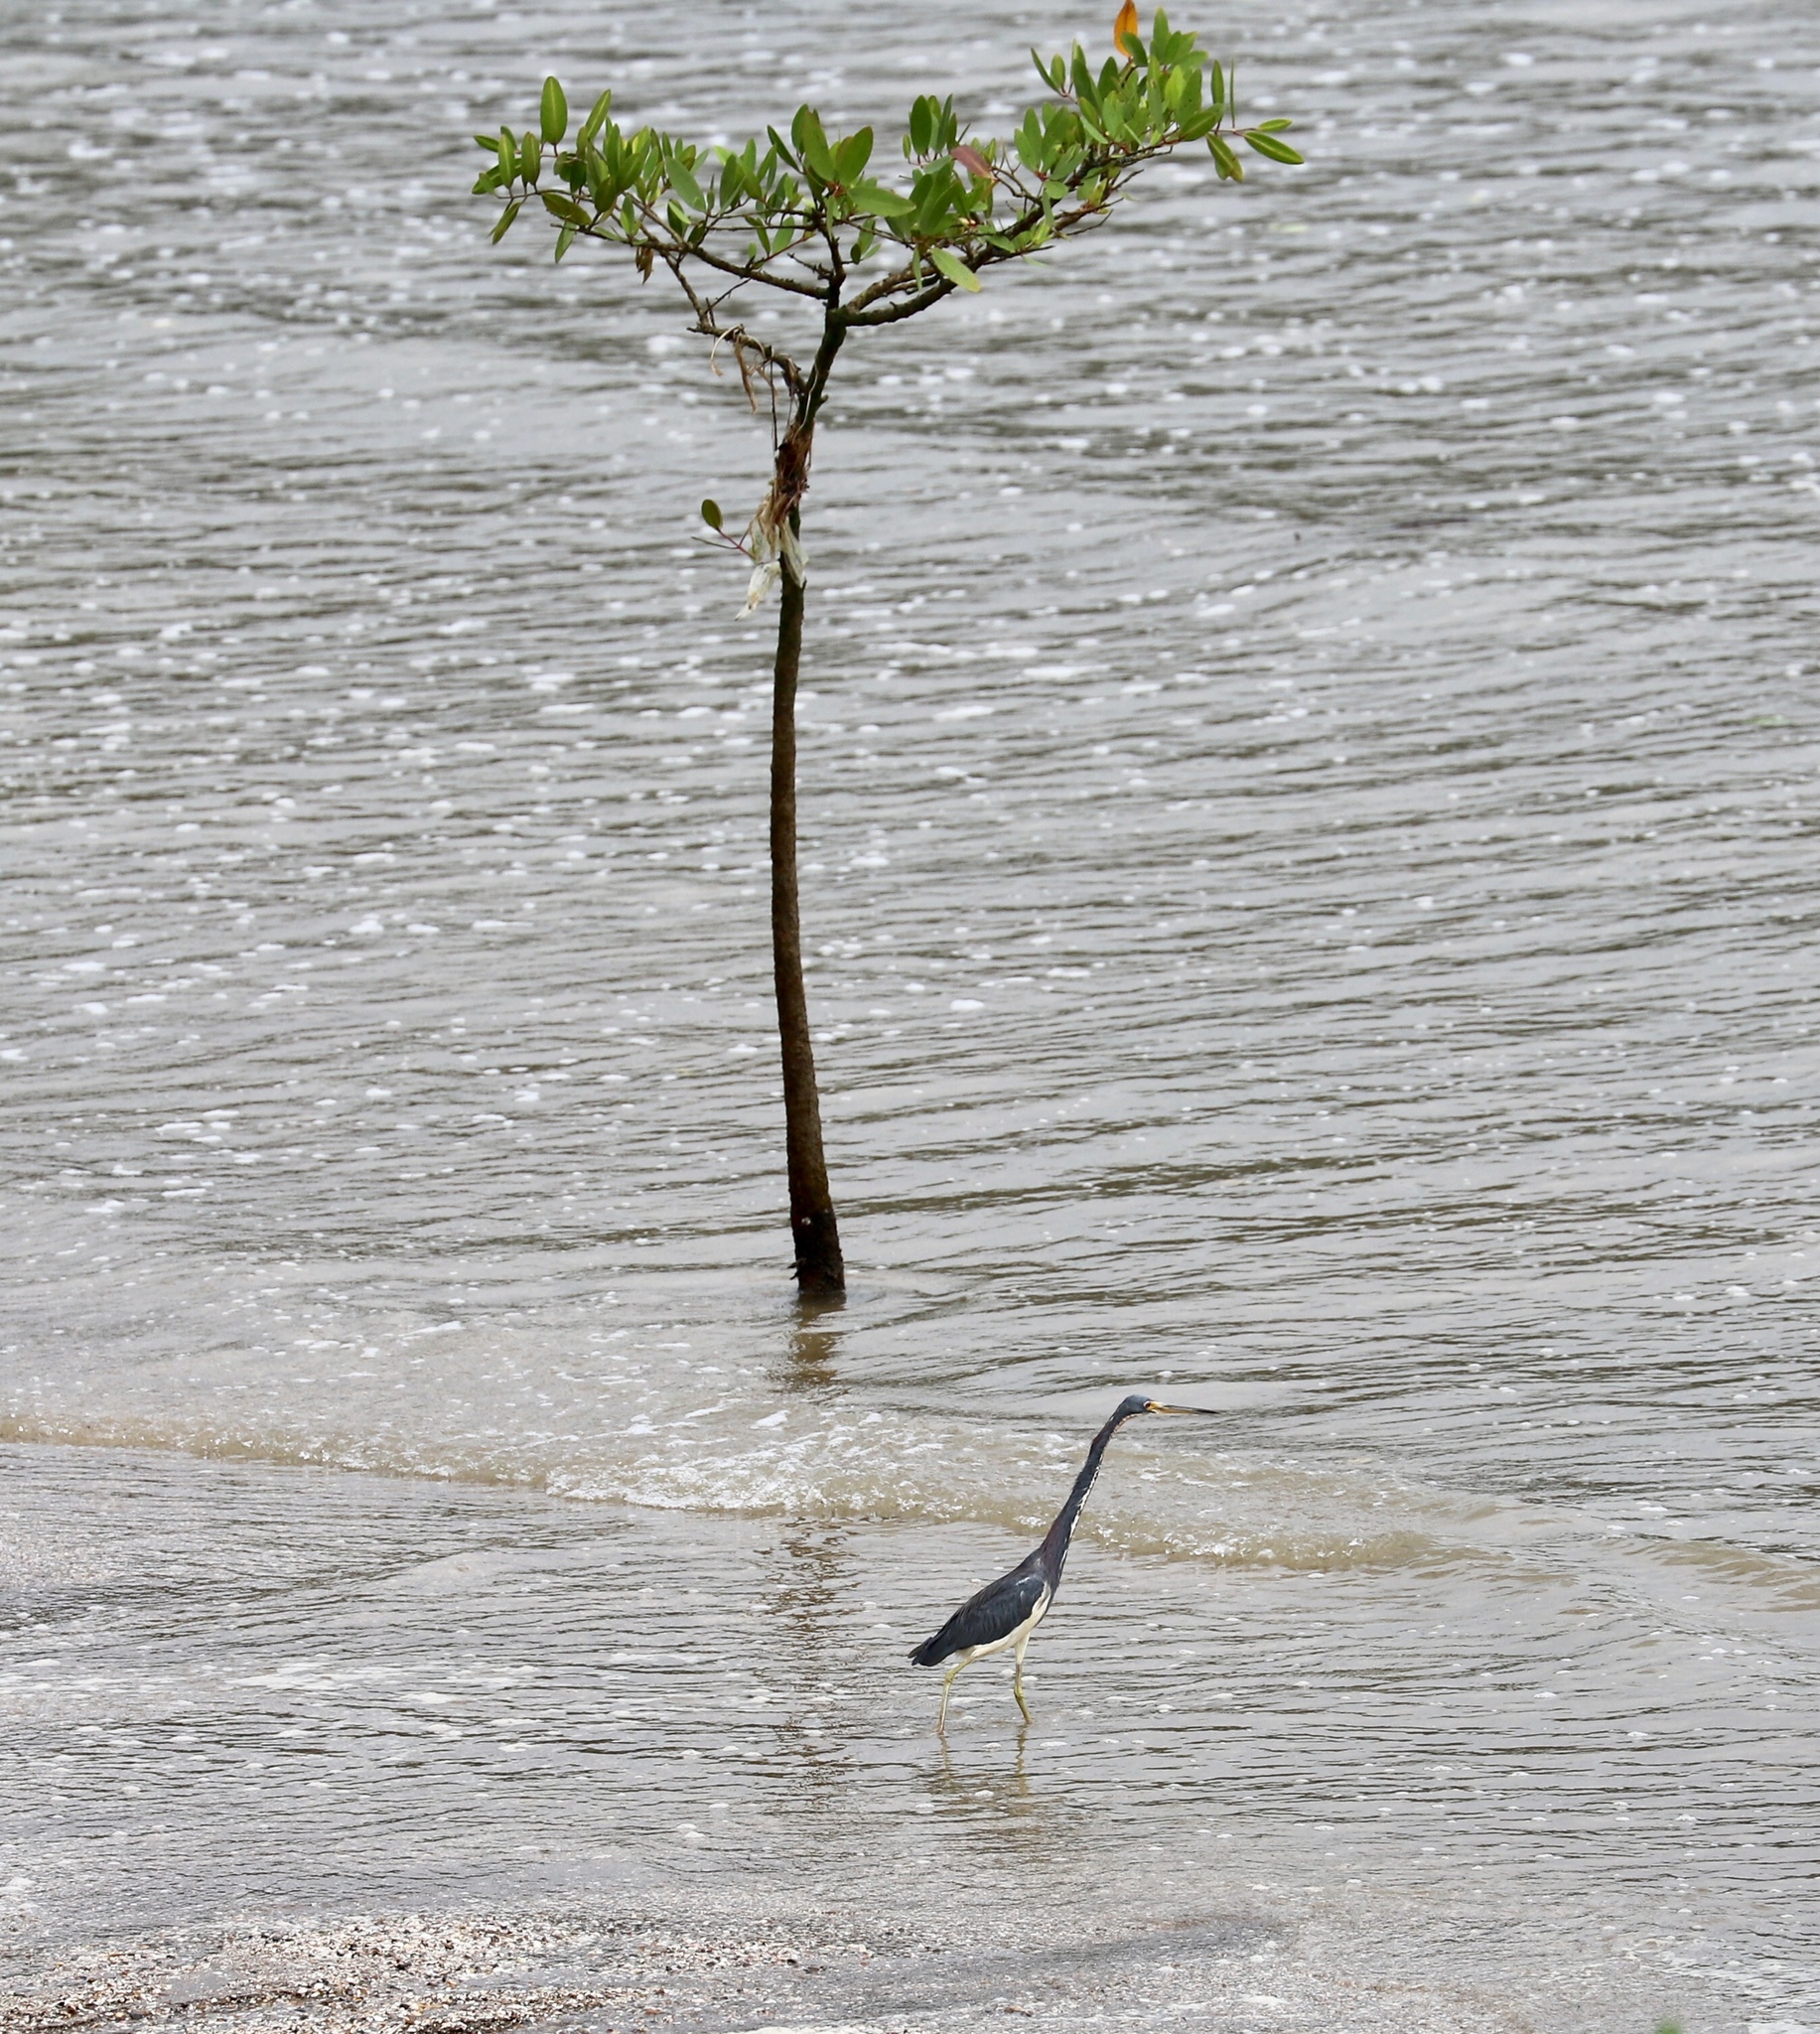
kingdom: Animalia
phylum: Chordata
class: Aves
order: Pelecaniformes
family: Ardeidae
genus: Egretta
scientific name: Egretta tricolor
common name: Tricolored heron
